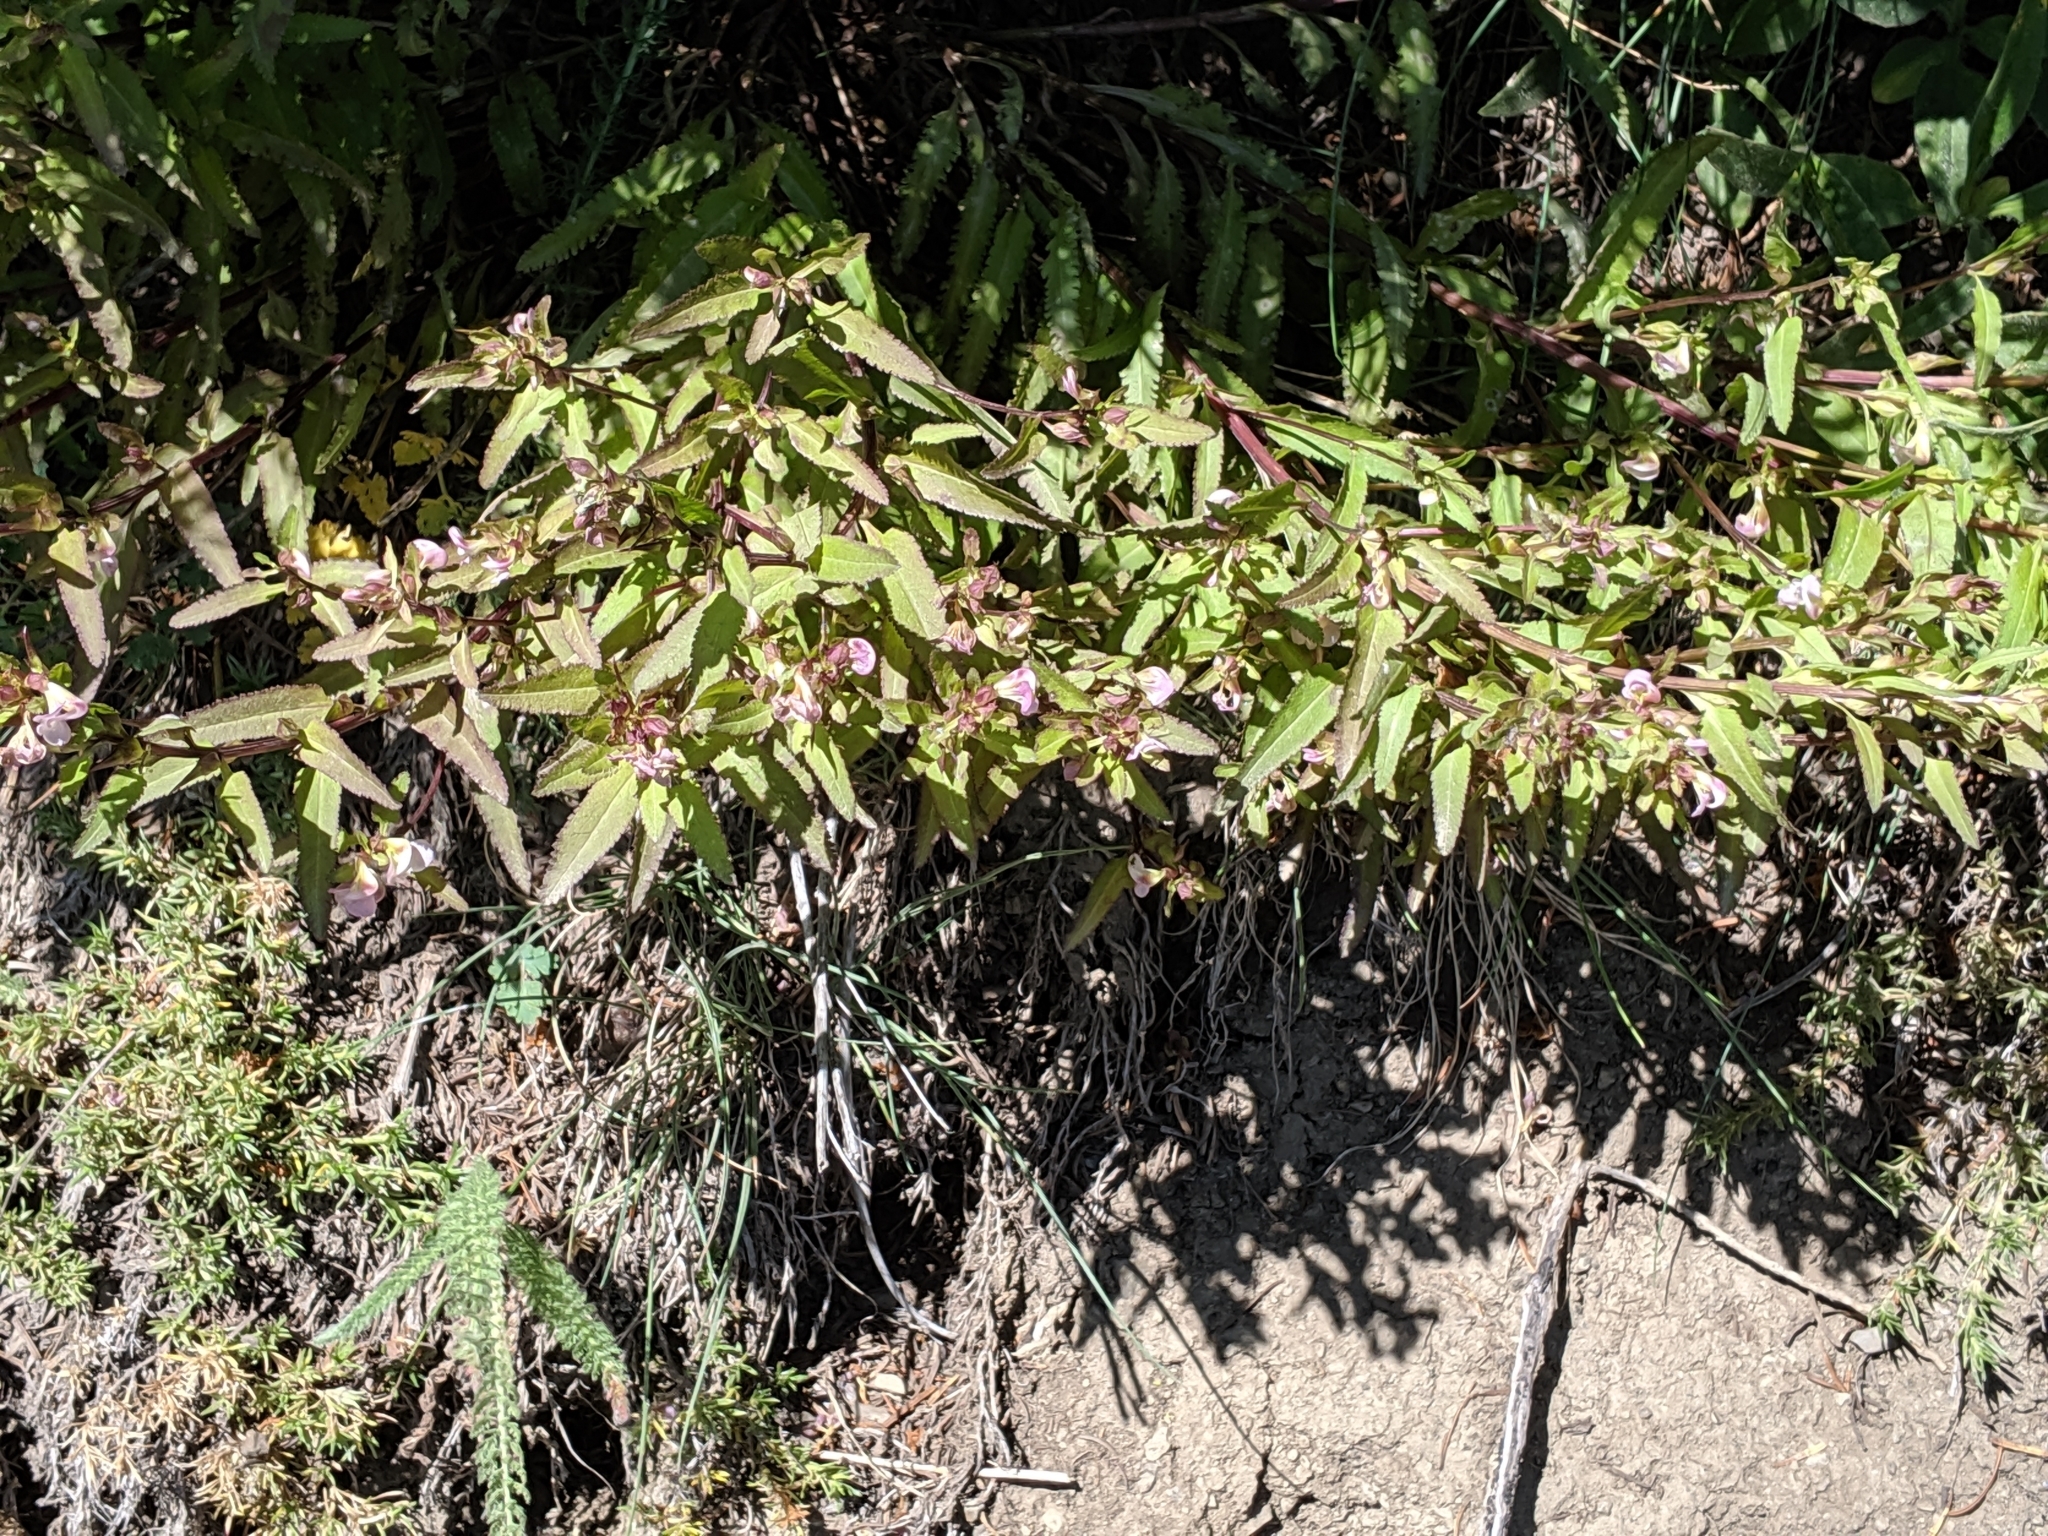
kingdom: Plantae
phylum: Tracheophyta
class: Magnoliopsida
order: Lamiales
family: Orobanchaceae
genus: Pedicularis
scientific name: Pedicularis racemosa
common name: Leafy lousewort
